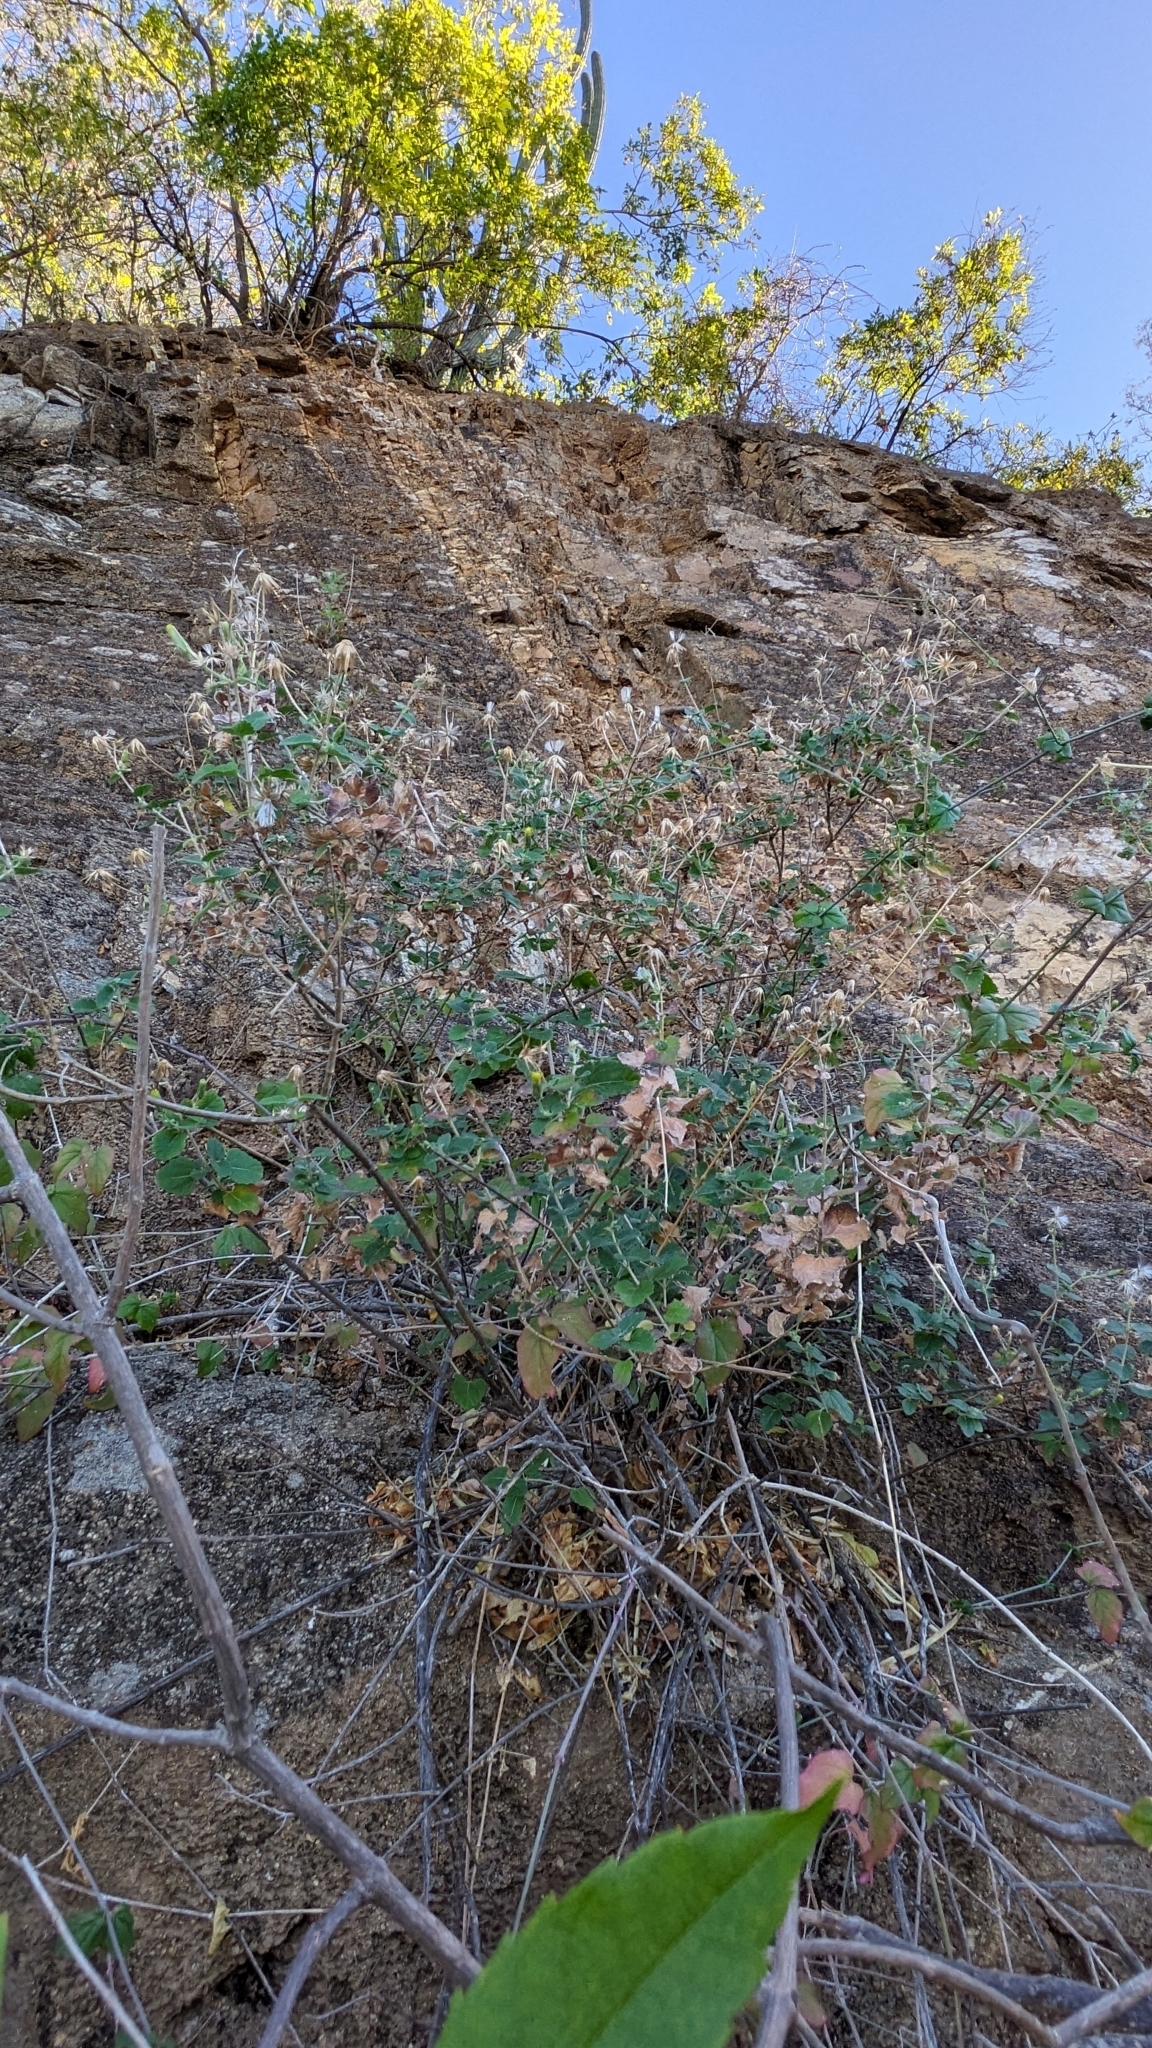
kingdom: Plantae
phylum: Tracheophyta
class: Magnoliopsida
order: Asterales
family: Asteraceae
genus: Brickellia
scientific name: Brickellia peninsularis
